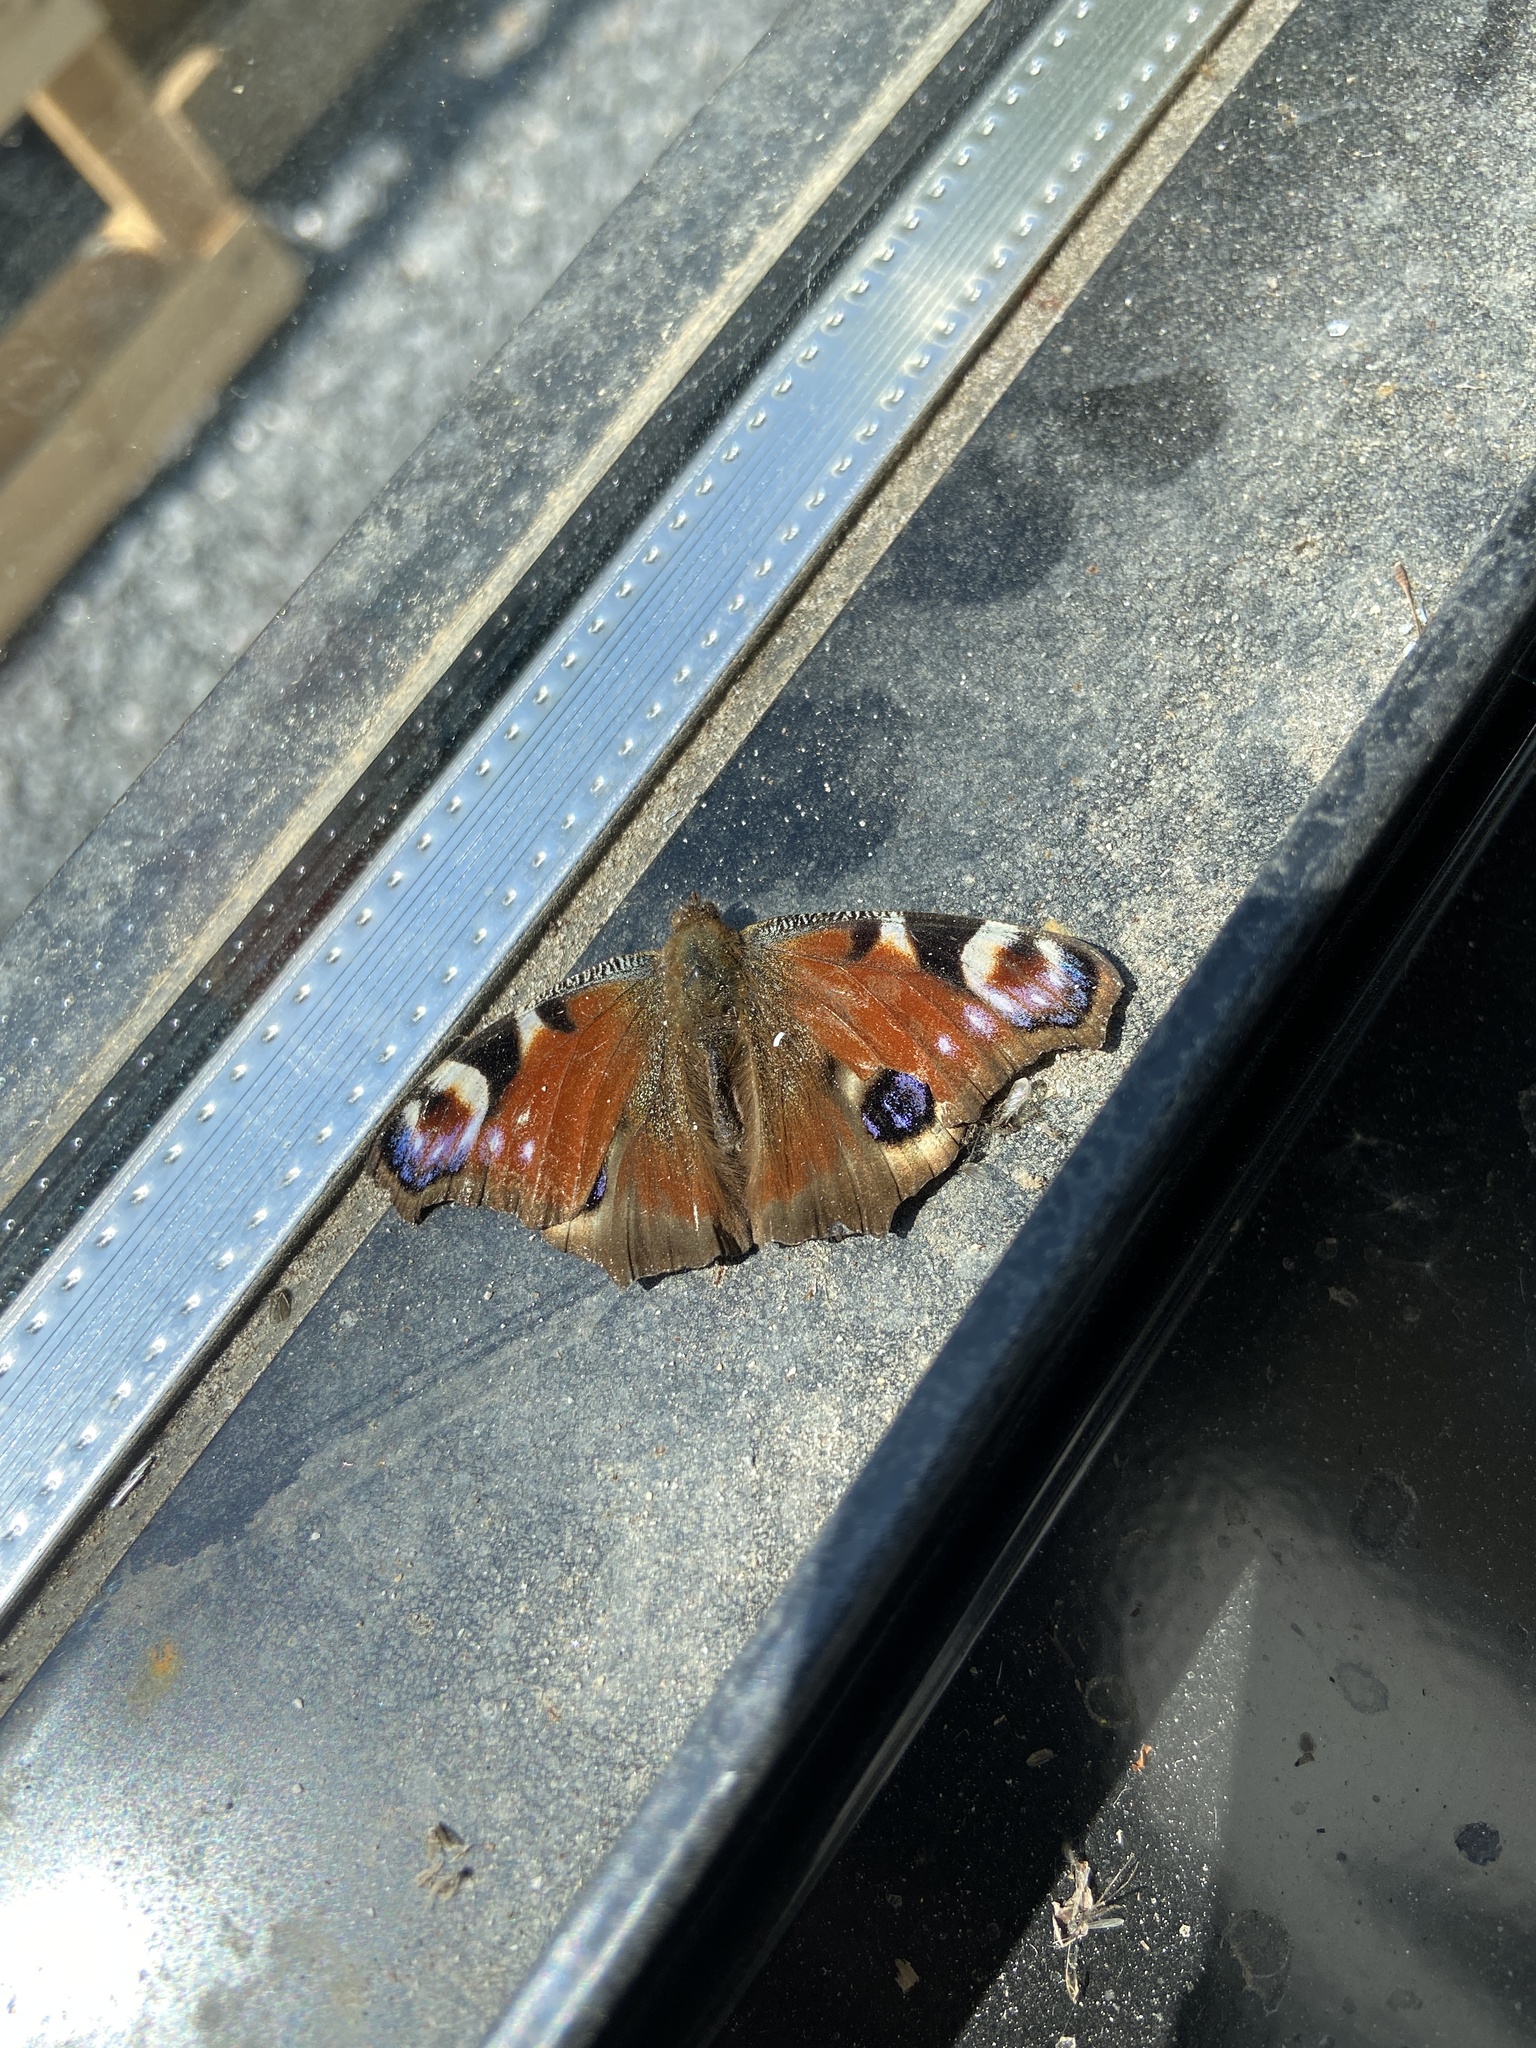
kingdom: Animalia
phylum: Arthropoda
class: Insecta
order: Lepidoptera
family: Nymphalidae
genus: Aglais
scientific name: Aglais io
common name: Peacock
